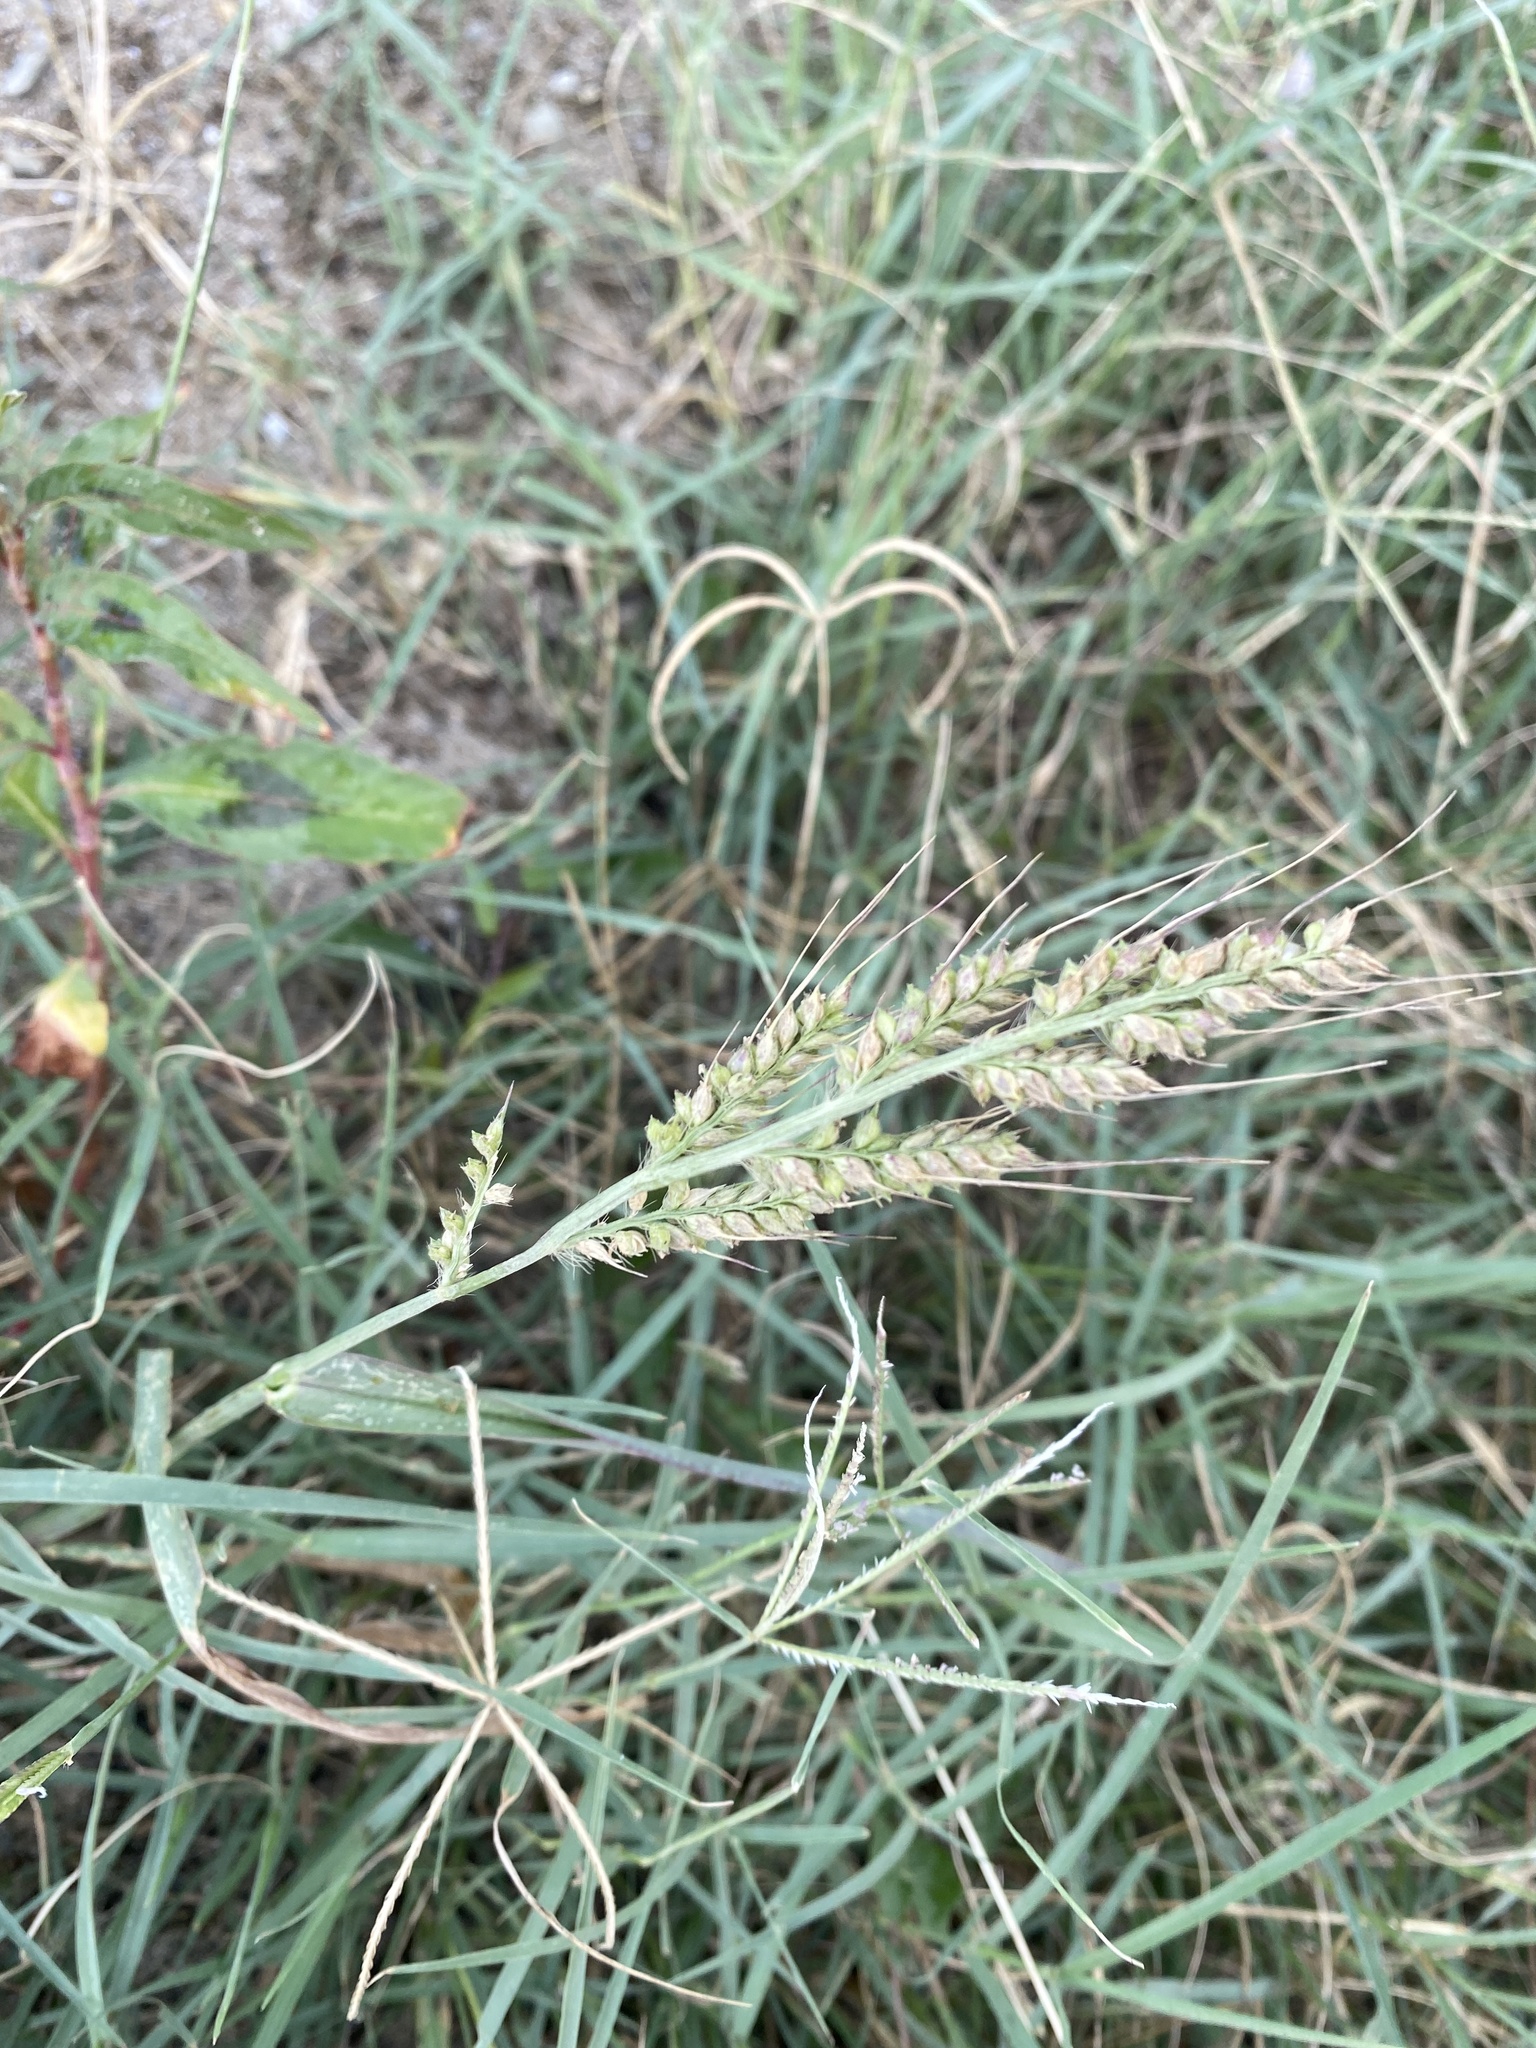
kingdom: Plantae
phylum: Tracheophyta
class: Liliopsida
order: Poales
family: Poaceae
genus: Echinochloa
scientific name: Echinochloa crus-galli
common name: Cockspur
